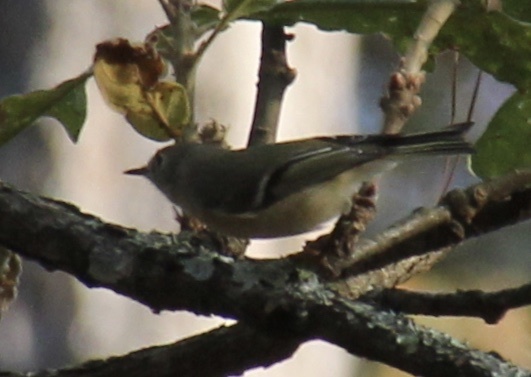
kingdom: Animalia
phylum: Chordata
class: Aves
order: Passeriformes
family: Regulidae
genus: Regulus
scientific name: Regulus calendula
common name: Ruby-crowned kinglet
